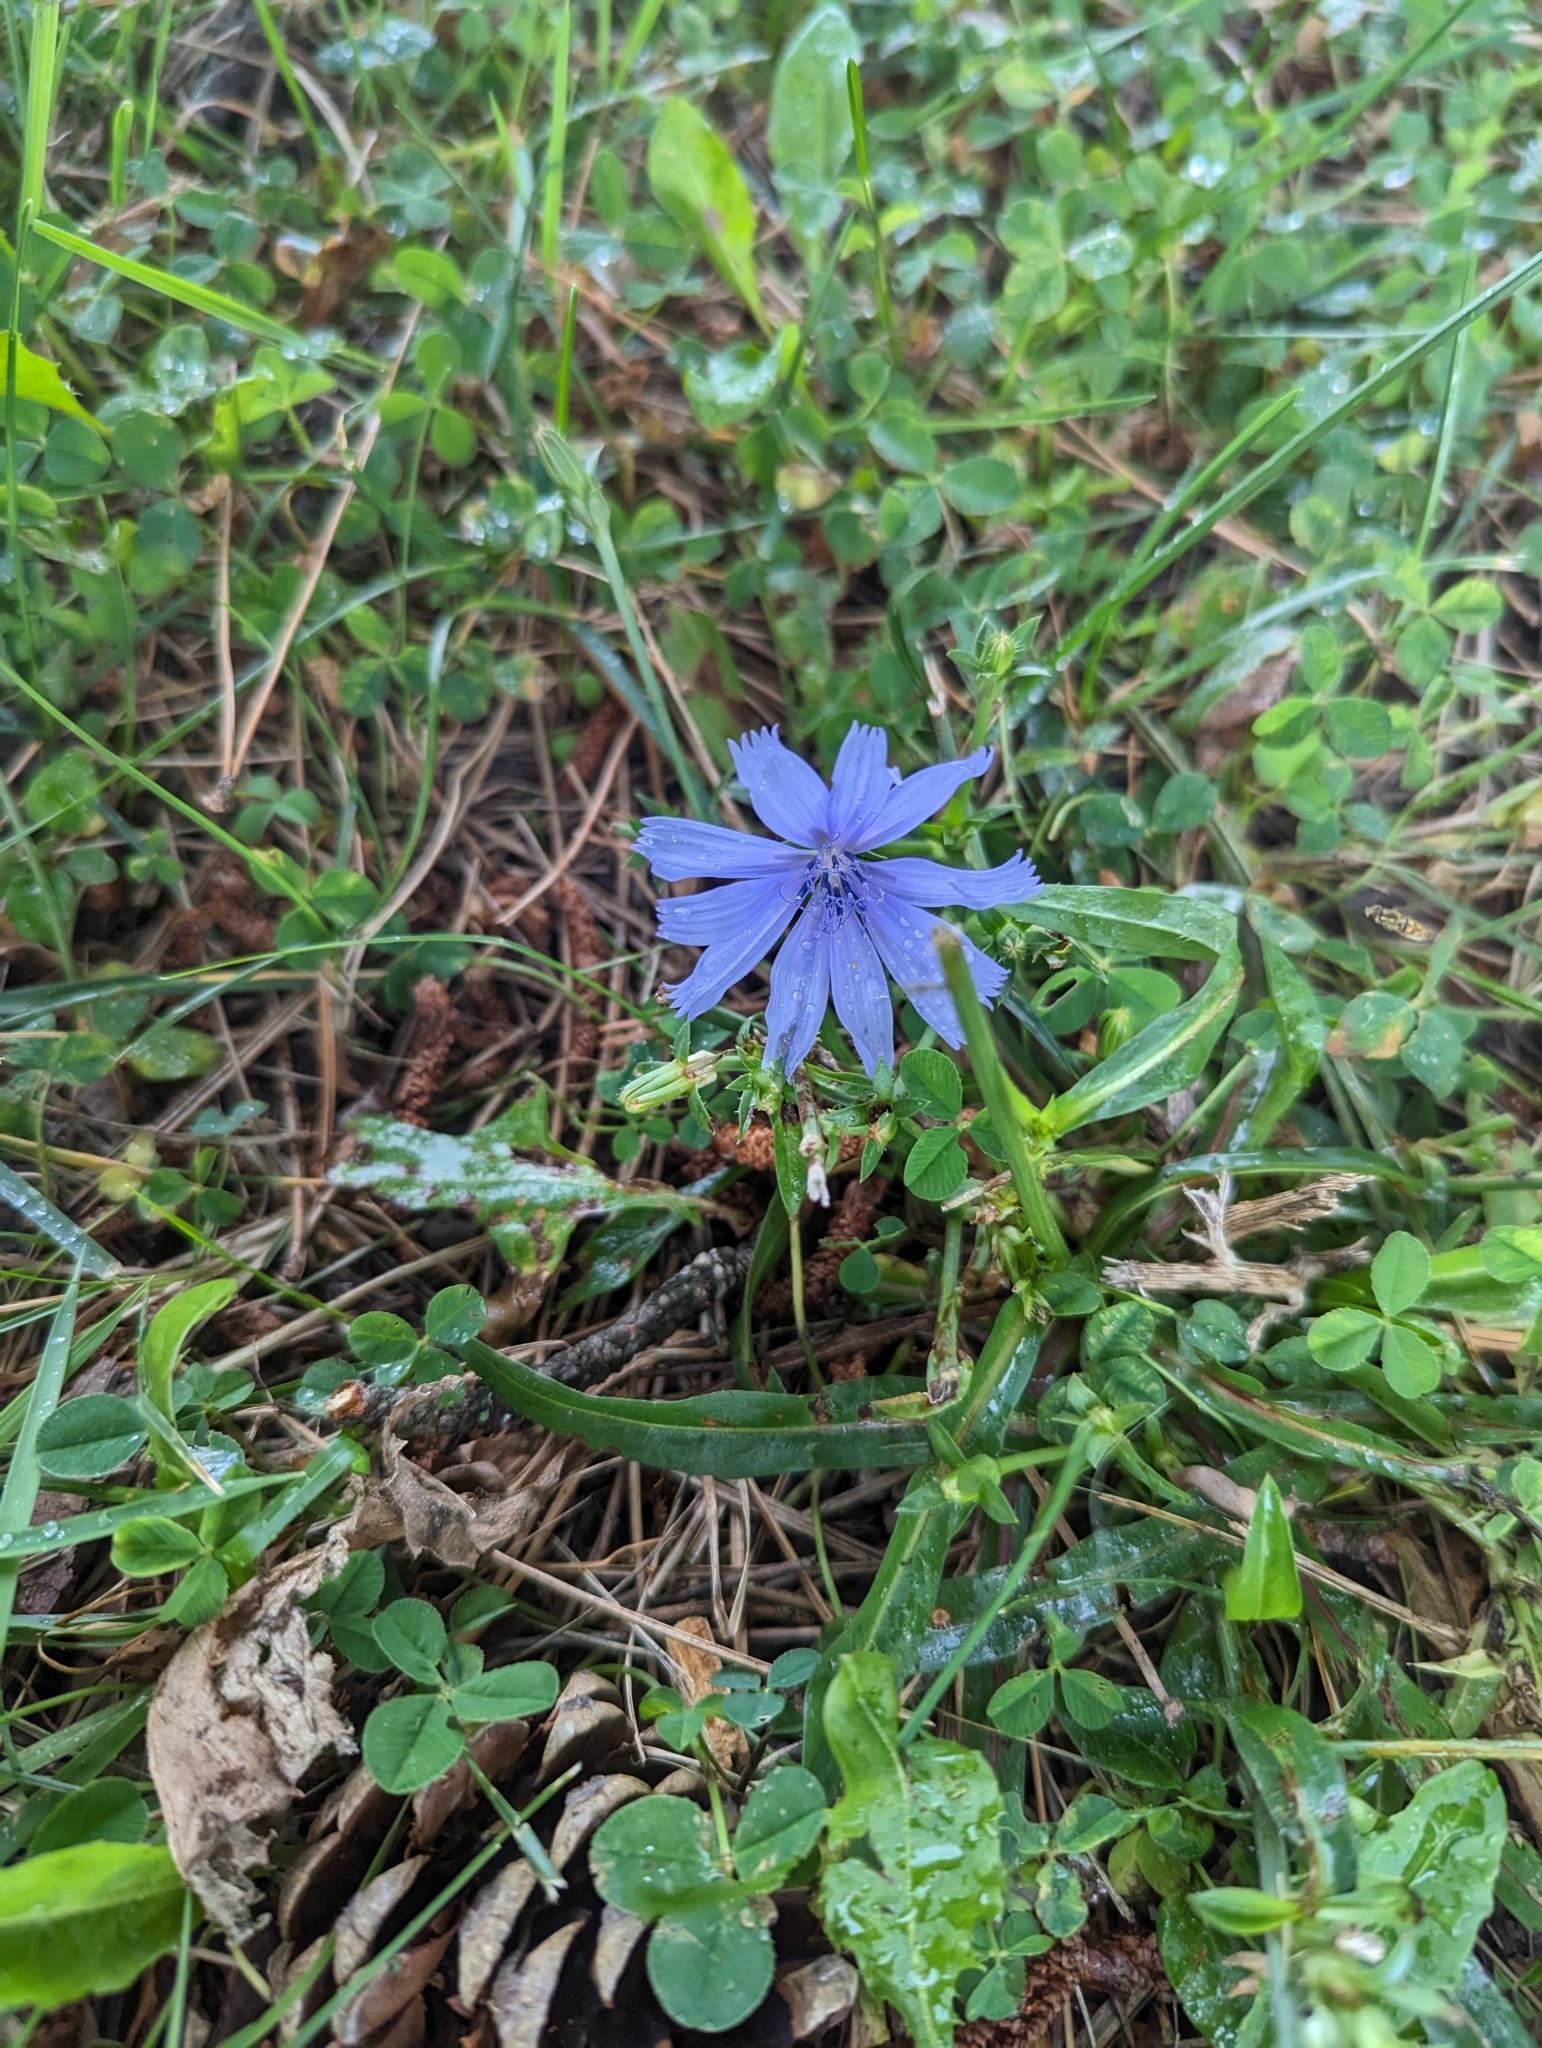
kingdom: Plantae
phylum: Tracheophyta
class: Magnoliopsida
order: Asterales
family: Asteraceae
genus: Cichorium
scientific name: Cichorium intybus
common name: Chicory
